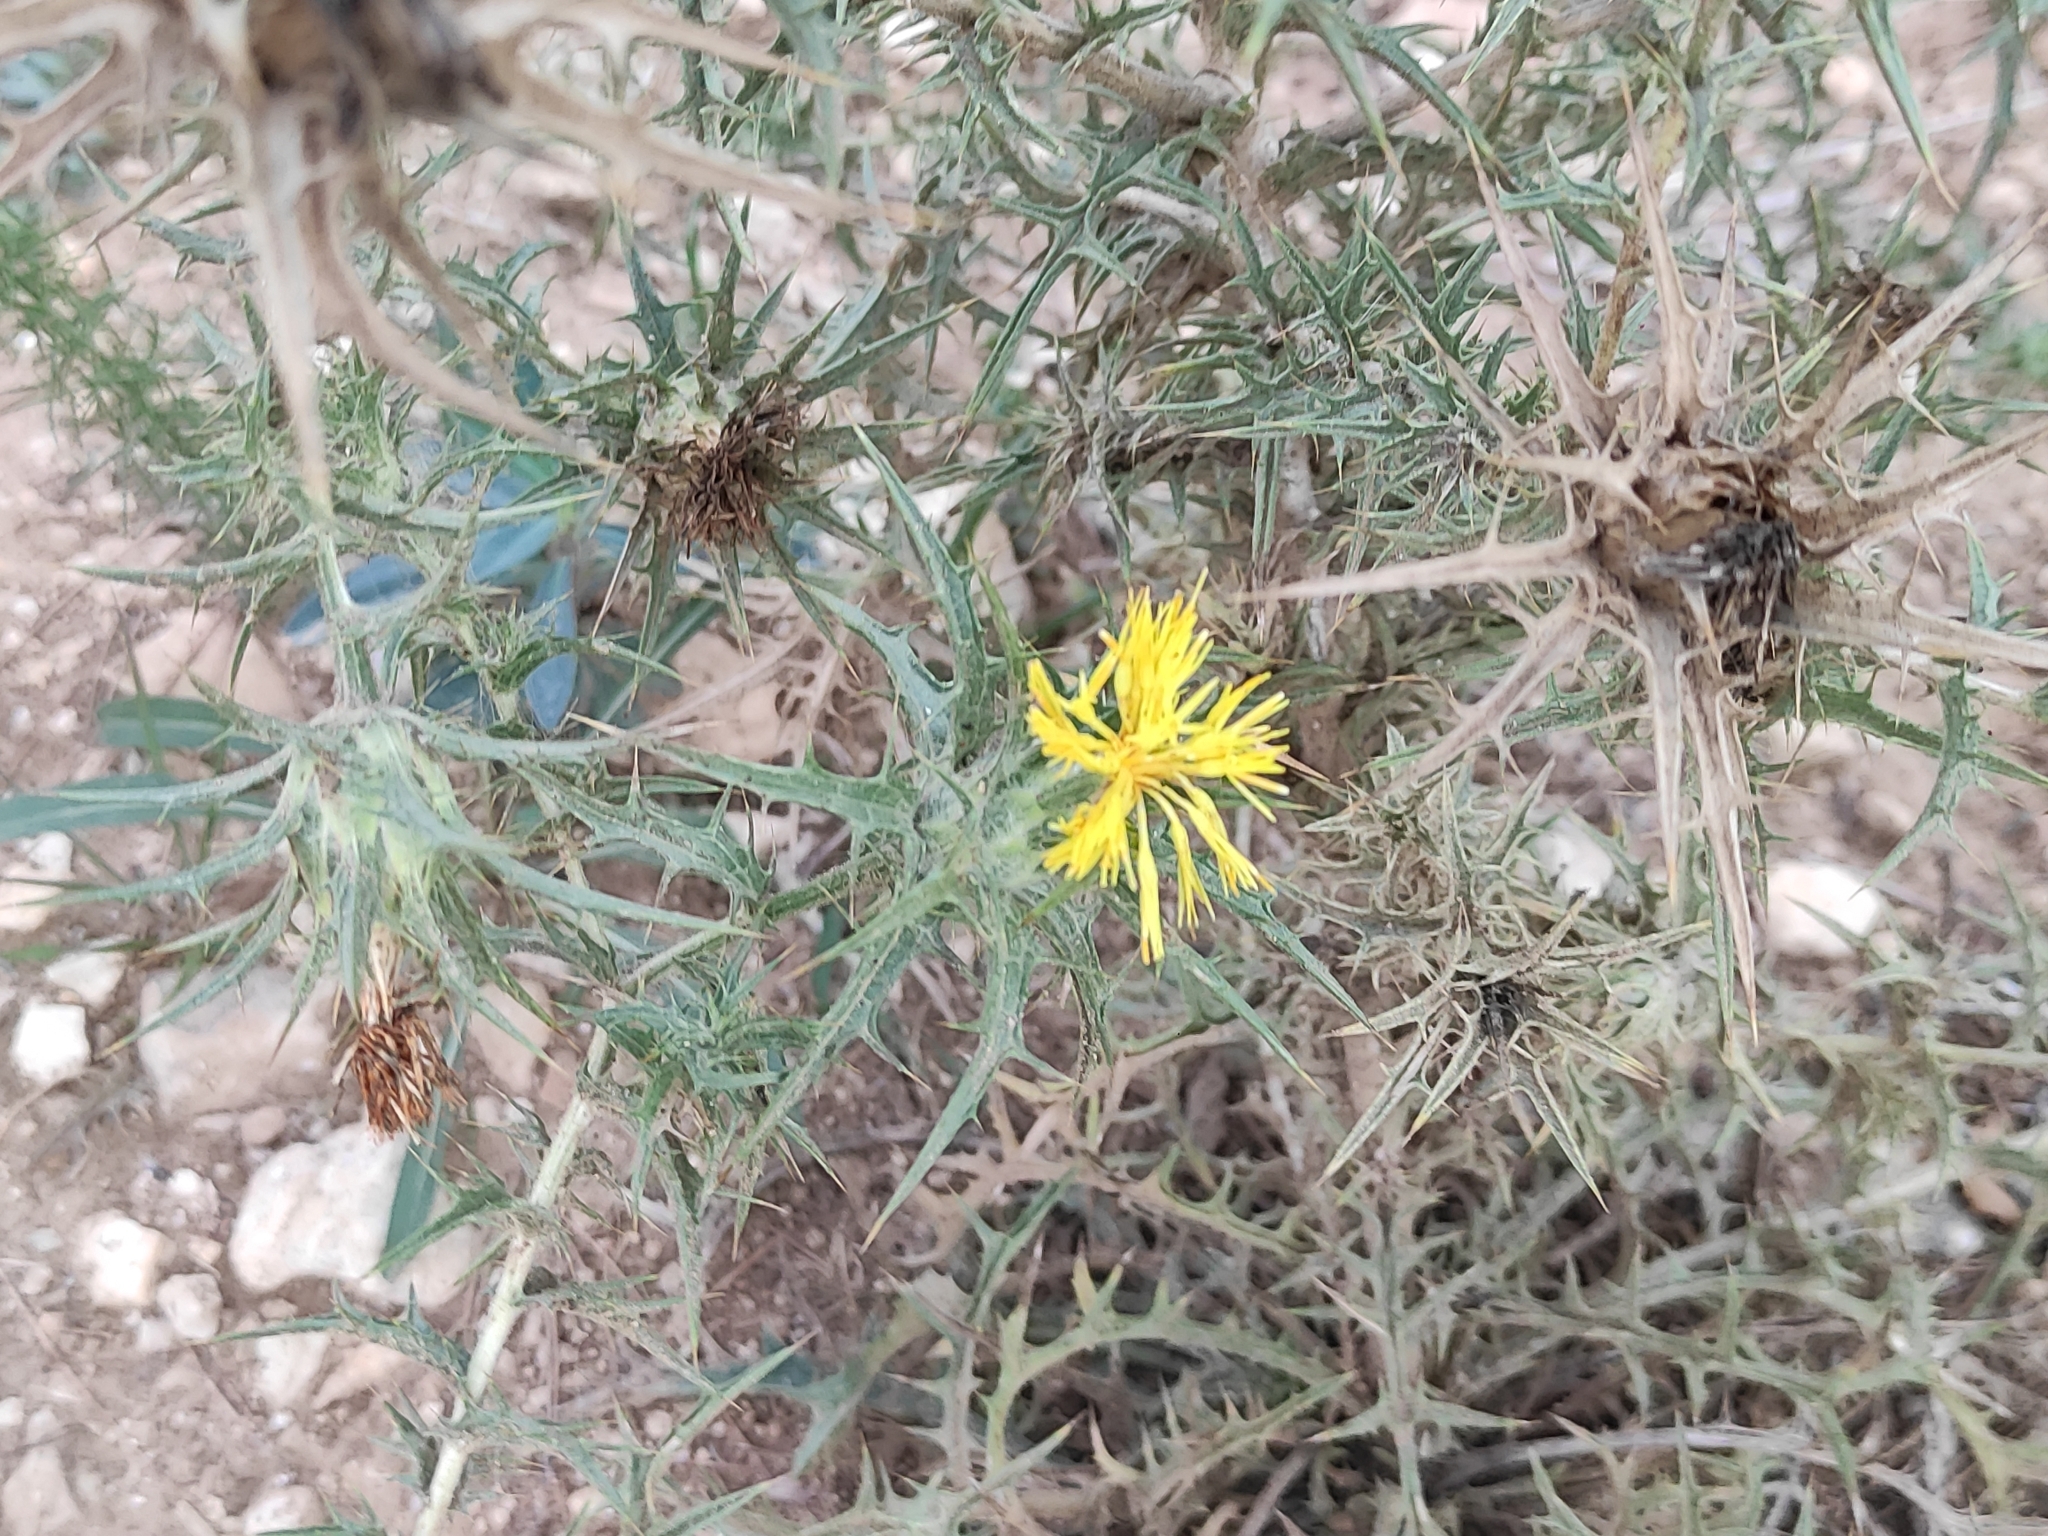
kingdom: Plantae
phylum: Tracheophyta
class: Magnoliopsida
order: Asterales
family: Asteraceae
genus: Carthamus
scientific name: Carthamus lanatus
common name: Downy safflower
